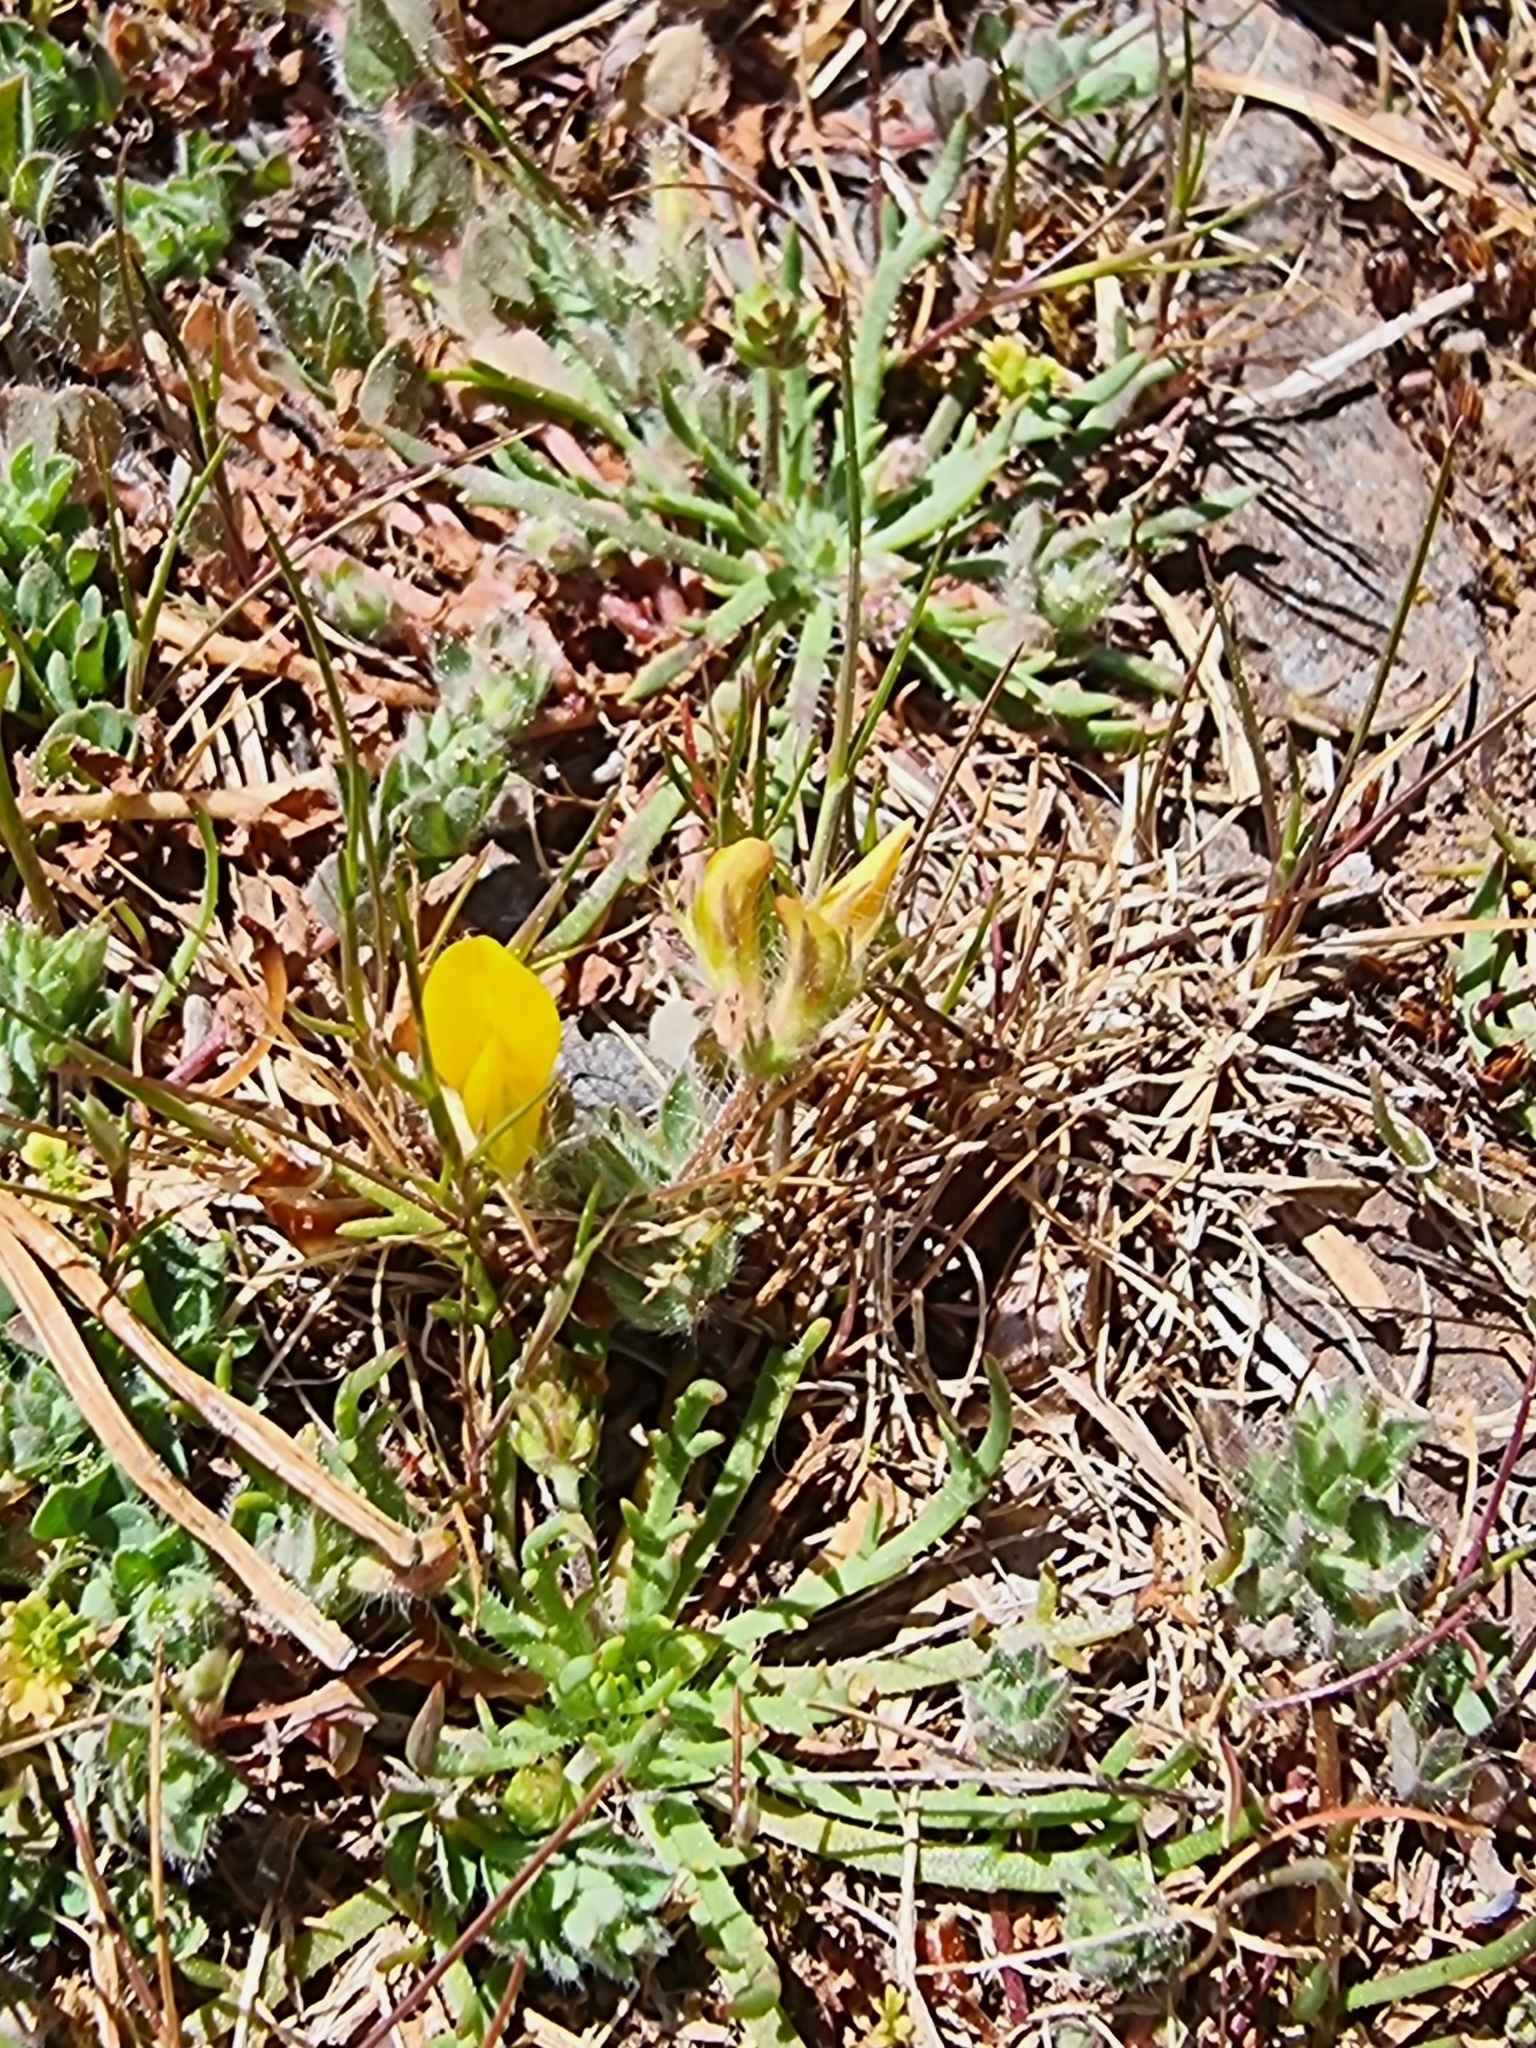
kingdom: Plantae
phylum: Tracheophyta
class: Magnoliopsida
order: Fabales
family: Fabaceae
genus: Lotus
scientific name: Lotus hispidus
